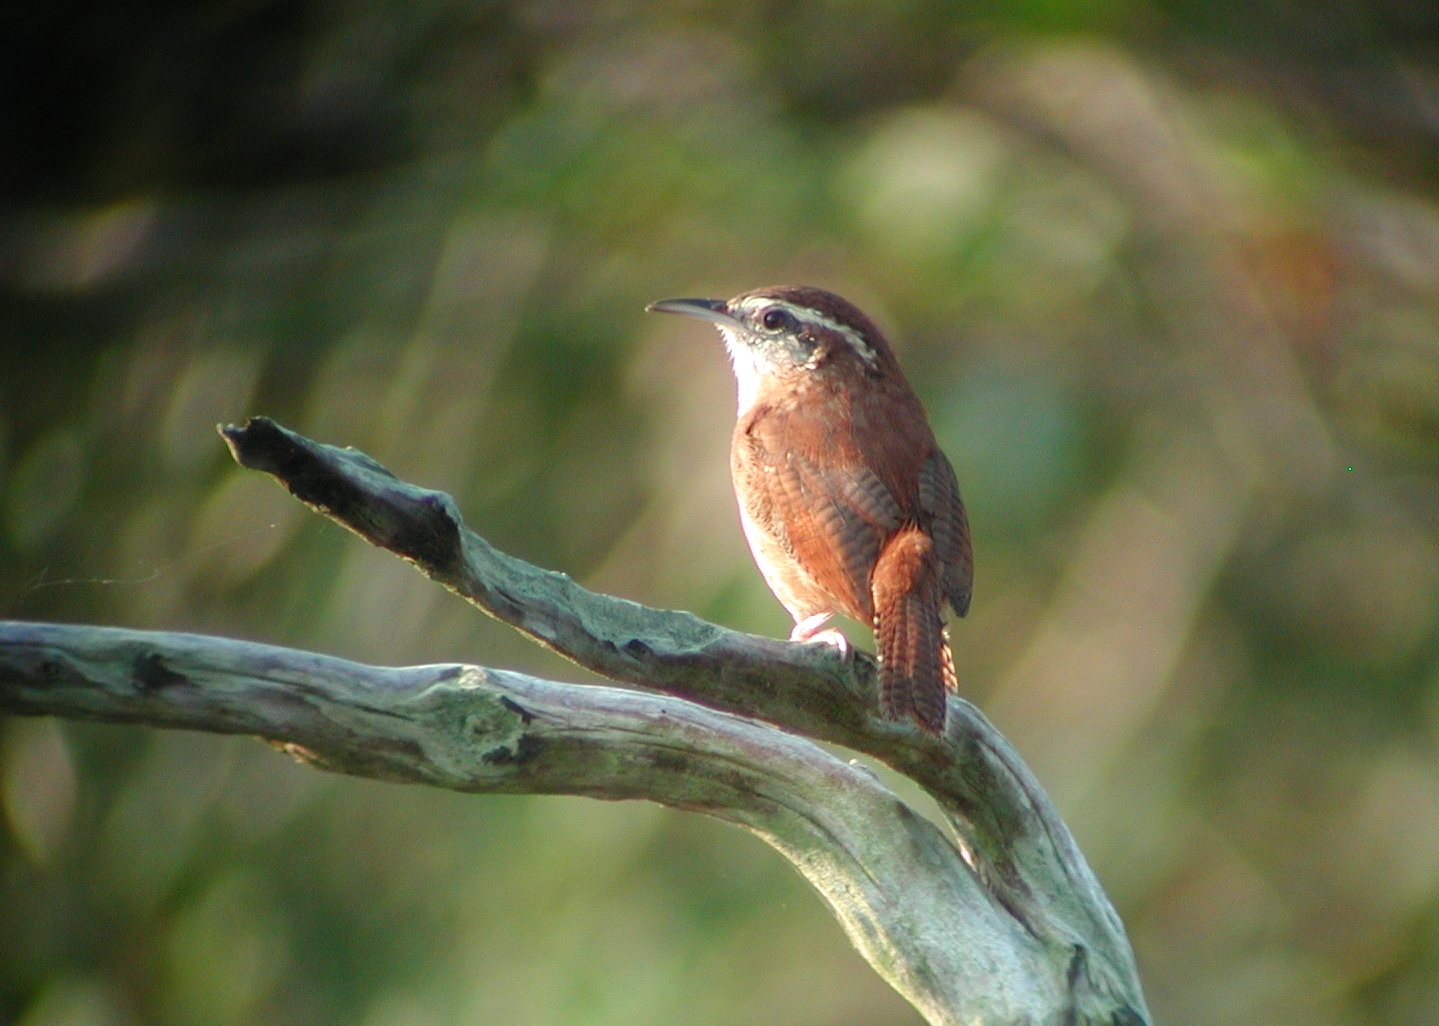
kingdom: Animalia
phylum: Chordata
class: Aves
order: Passeriformes
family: Troglodytidae
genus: Thryothorus
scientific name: Thryothorus ludovicianus
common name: Carolina wren
